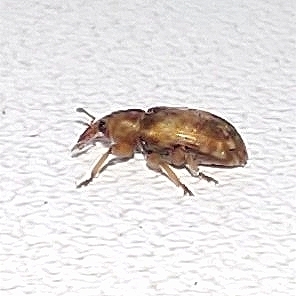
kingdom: Animalia
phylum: Arthropoda
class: Insecta
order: Coleoptera
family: Brachyceridae
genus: Erirhinus
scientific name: Erirhinus nebulosus
